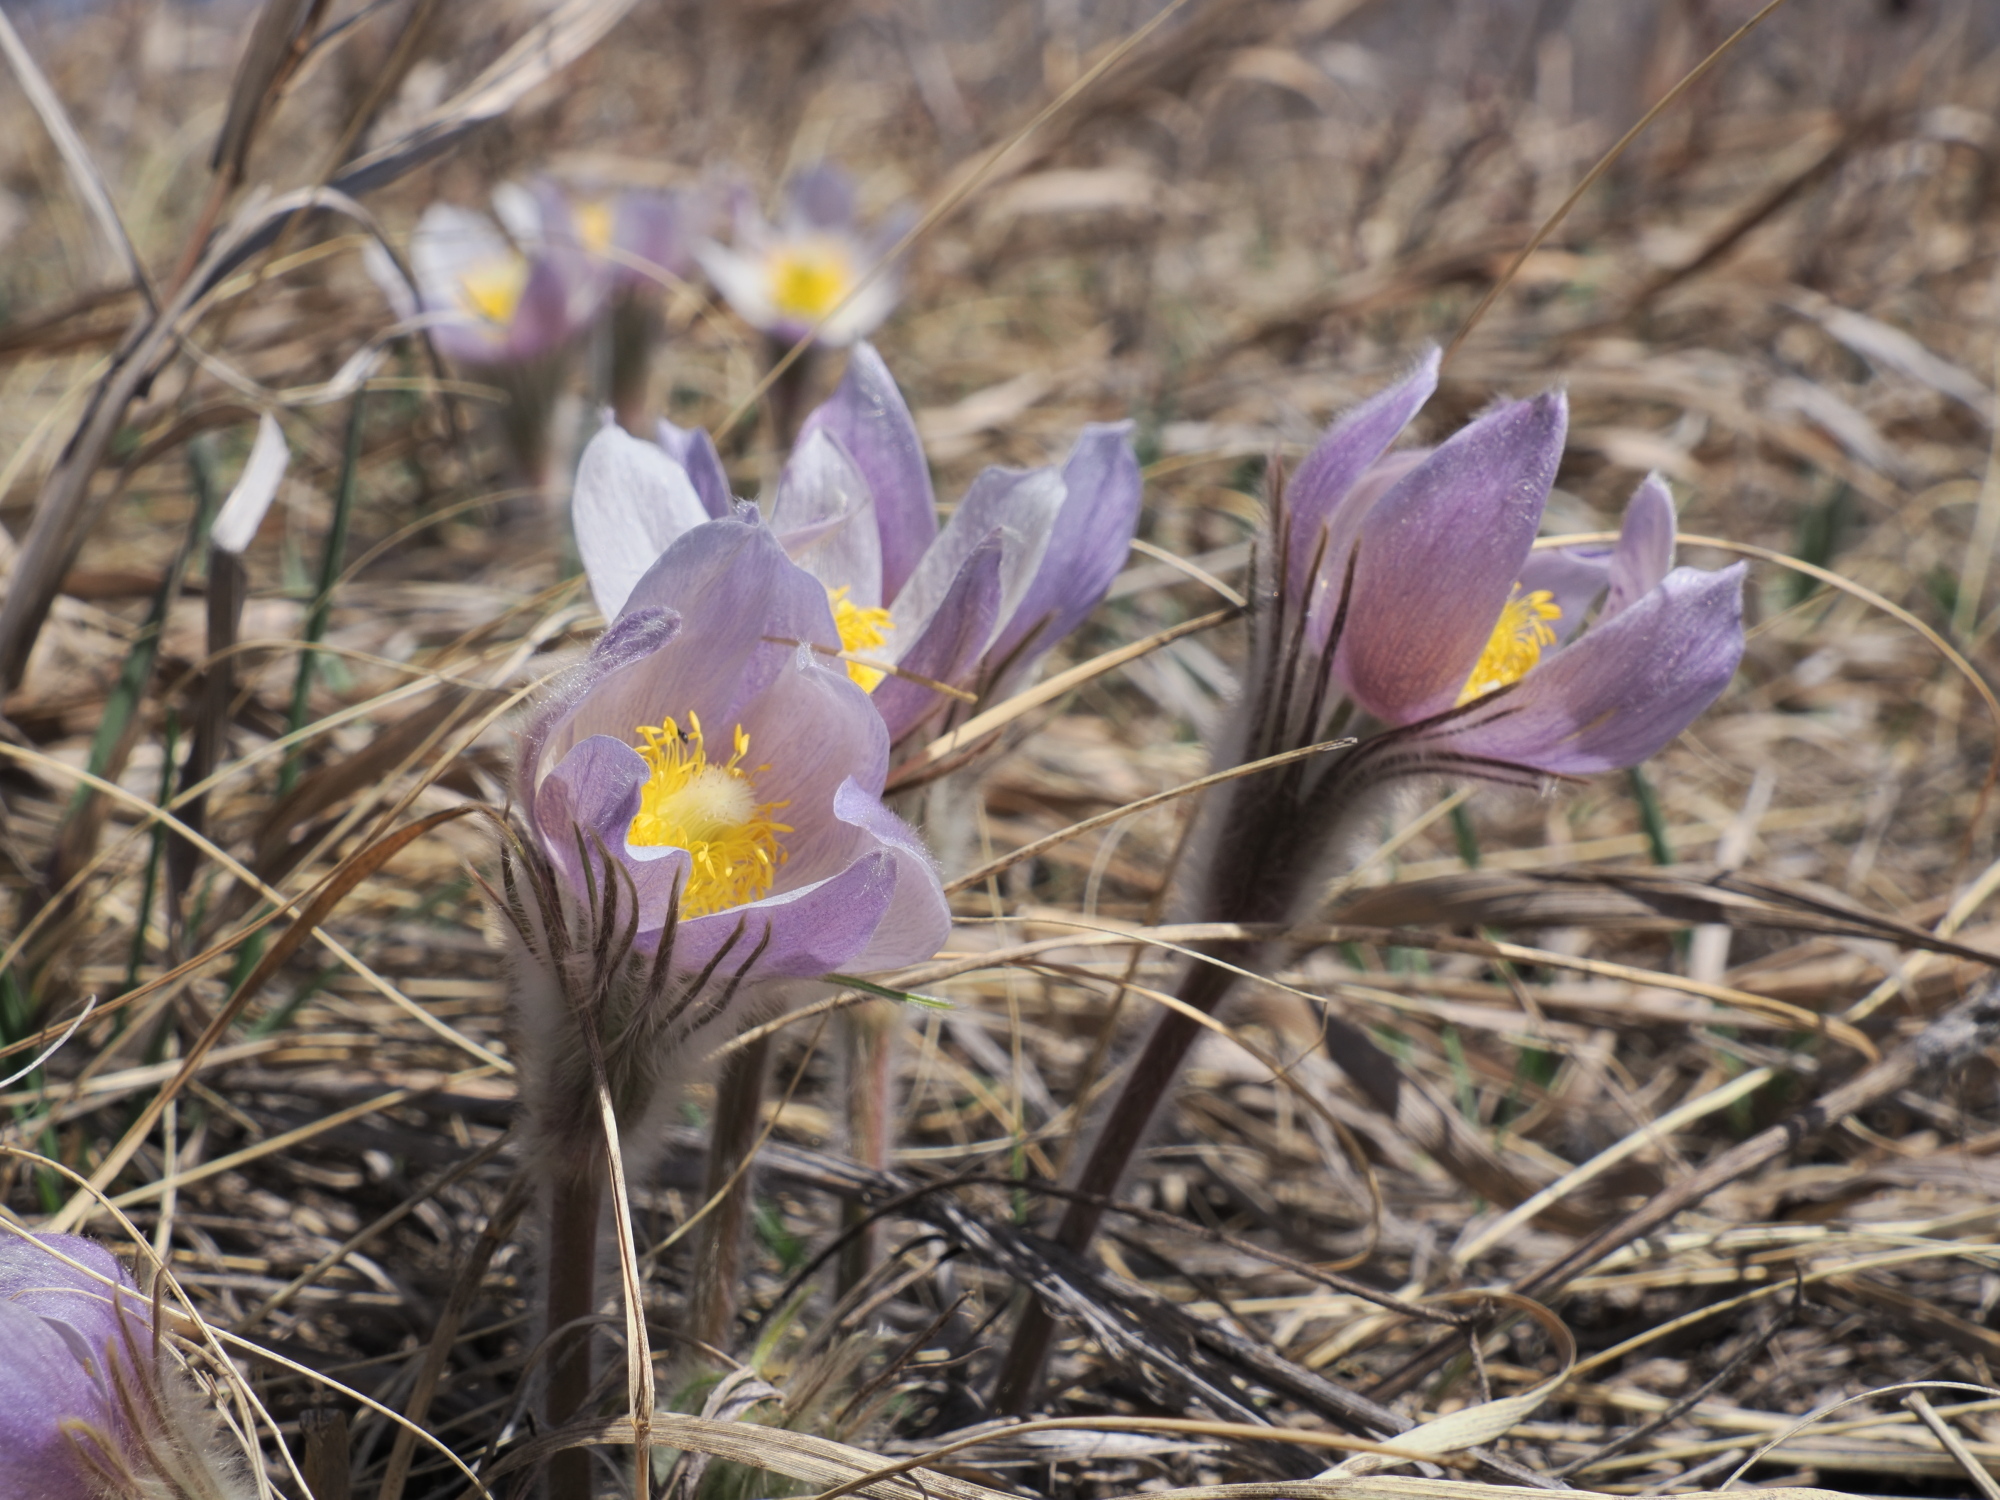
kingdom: Plantae
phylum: Tracheophyta
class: Magnoliopsida
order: Ranunculales
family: Ranunculaceae
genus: Pulsatilla
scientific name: Pulsatilla nuttalliana
